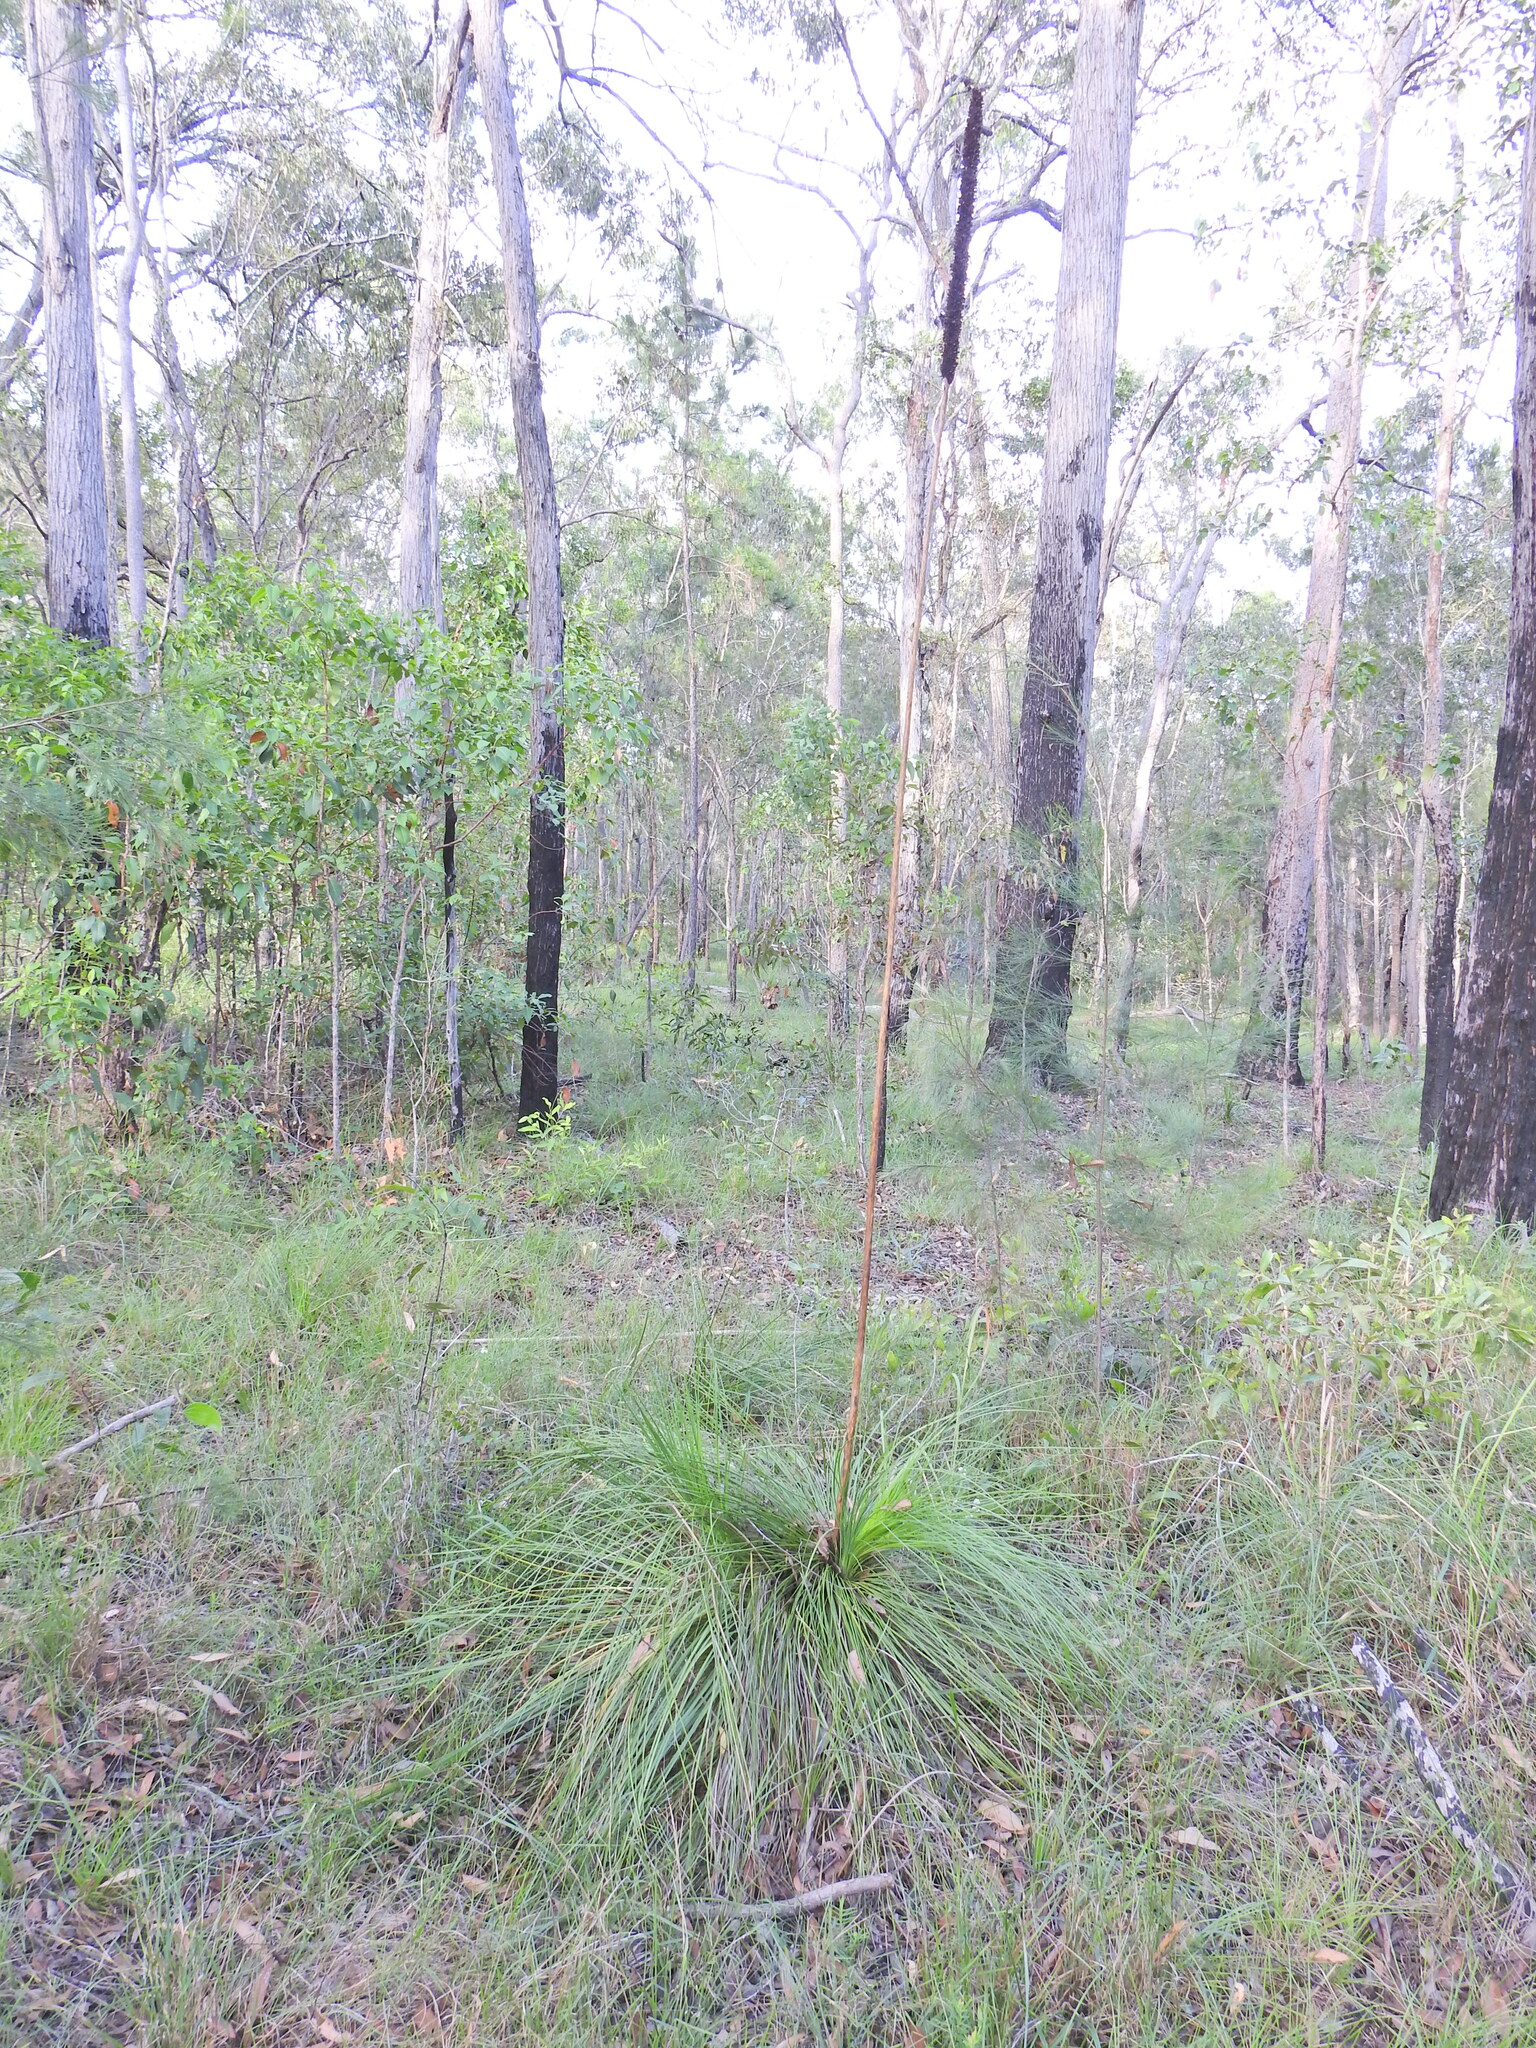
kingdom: Plantae
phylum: Tracheophyta
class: Liliopsida
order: Asparagales
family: Asphodelaceae
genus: Xanthorrhoea
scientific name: Xanthorrhoea latifolia
